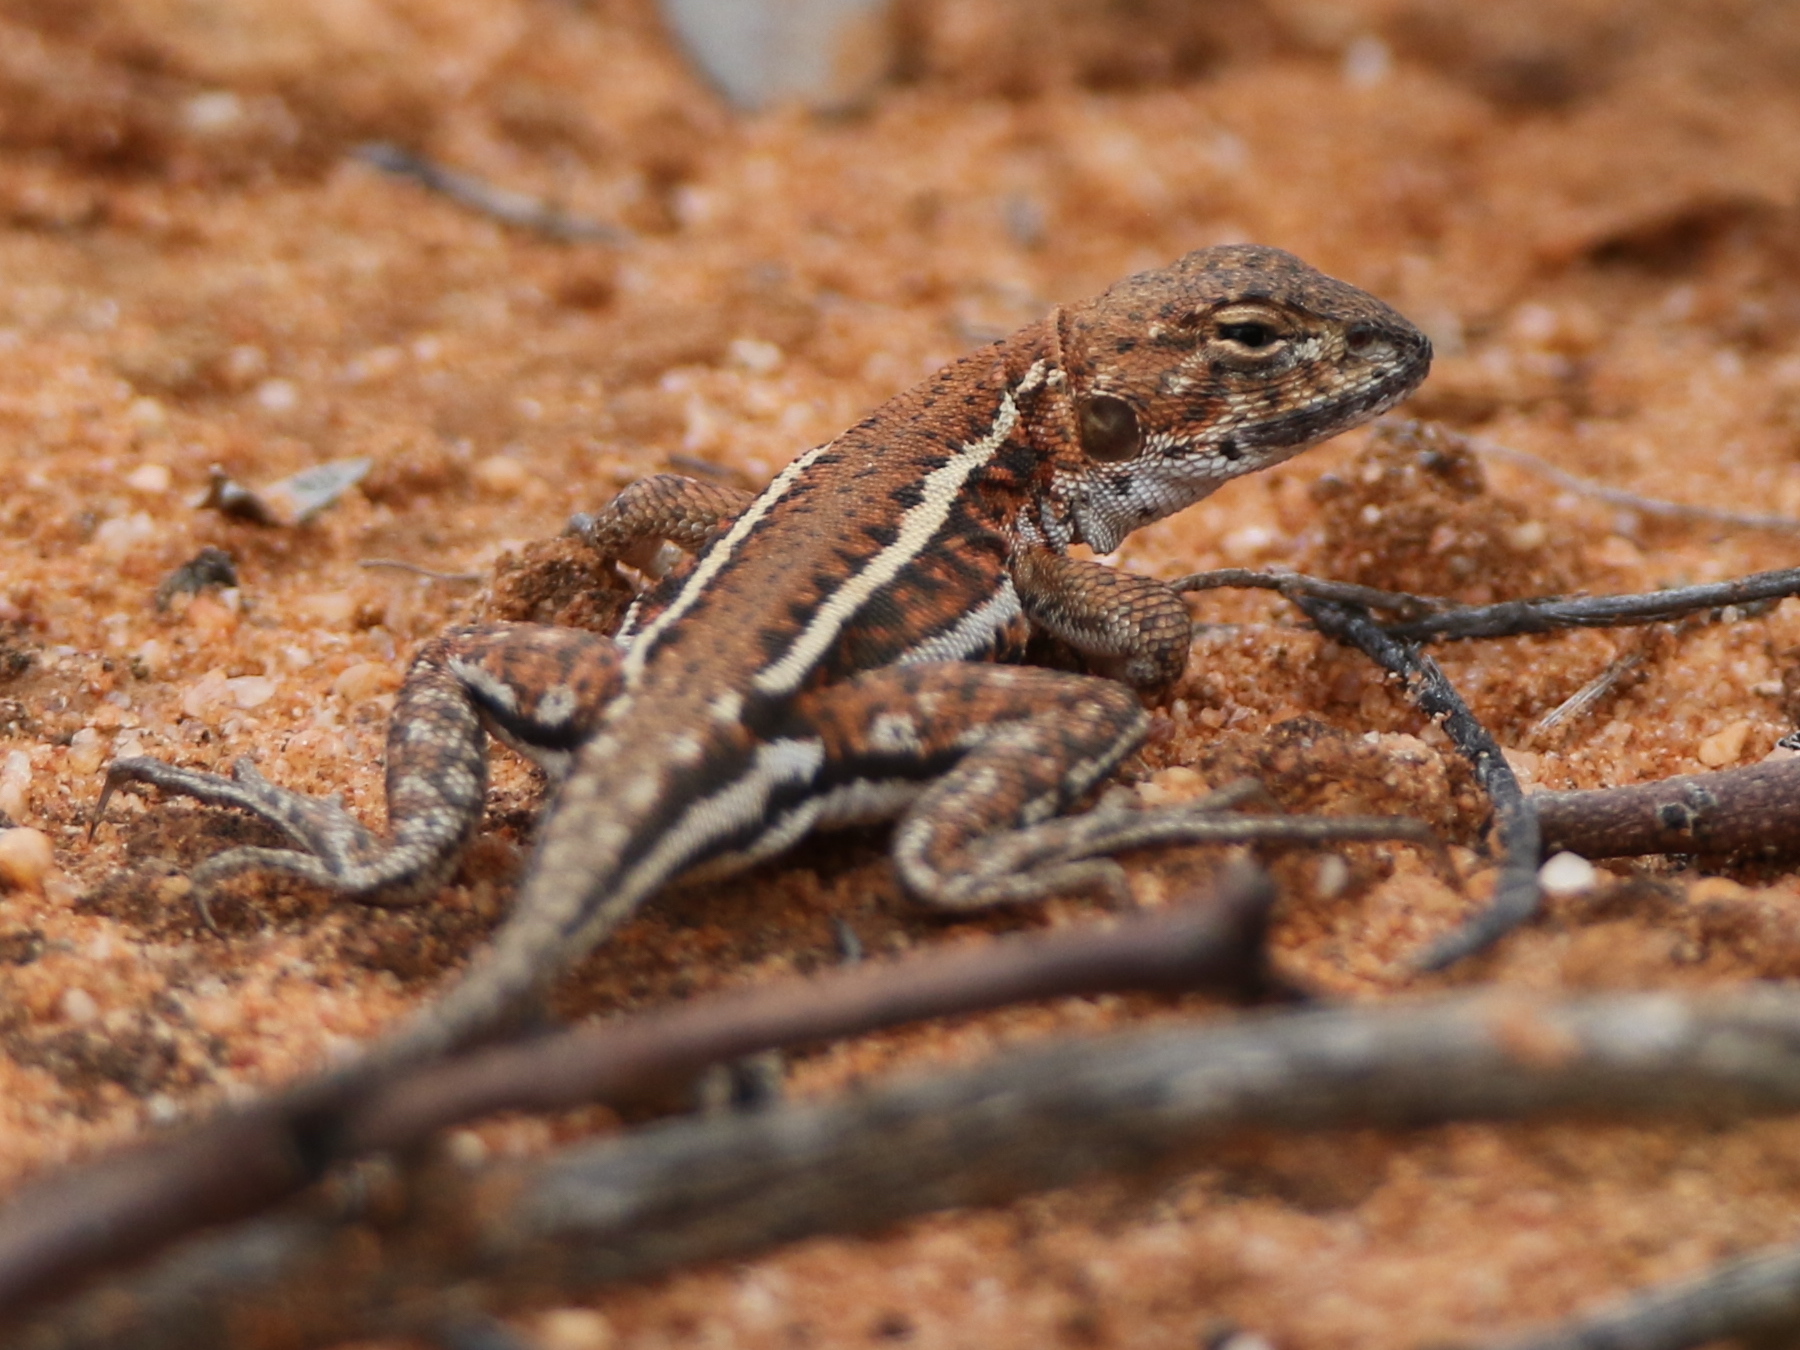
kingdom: Animalia
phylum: Chordata
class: Squamata
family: Agamidae
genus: Ctenophorus
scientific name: Ctenophorus spinodomus
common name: Eastern mallee dragon
